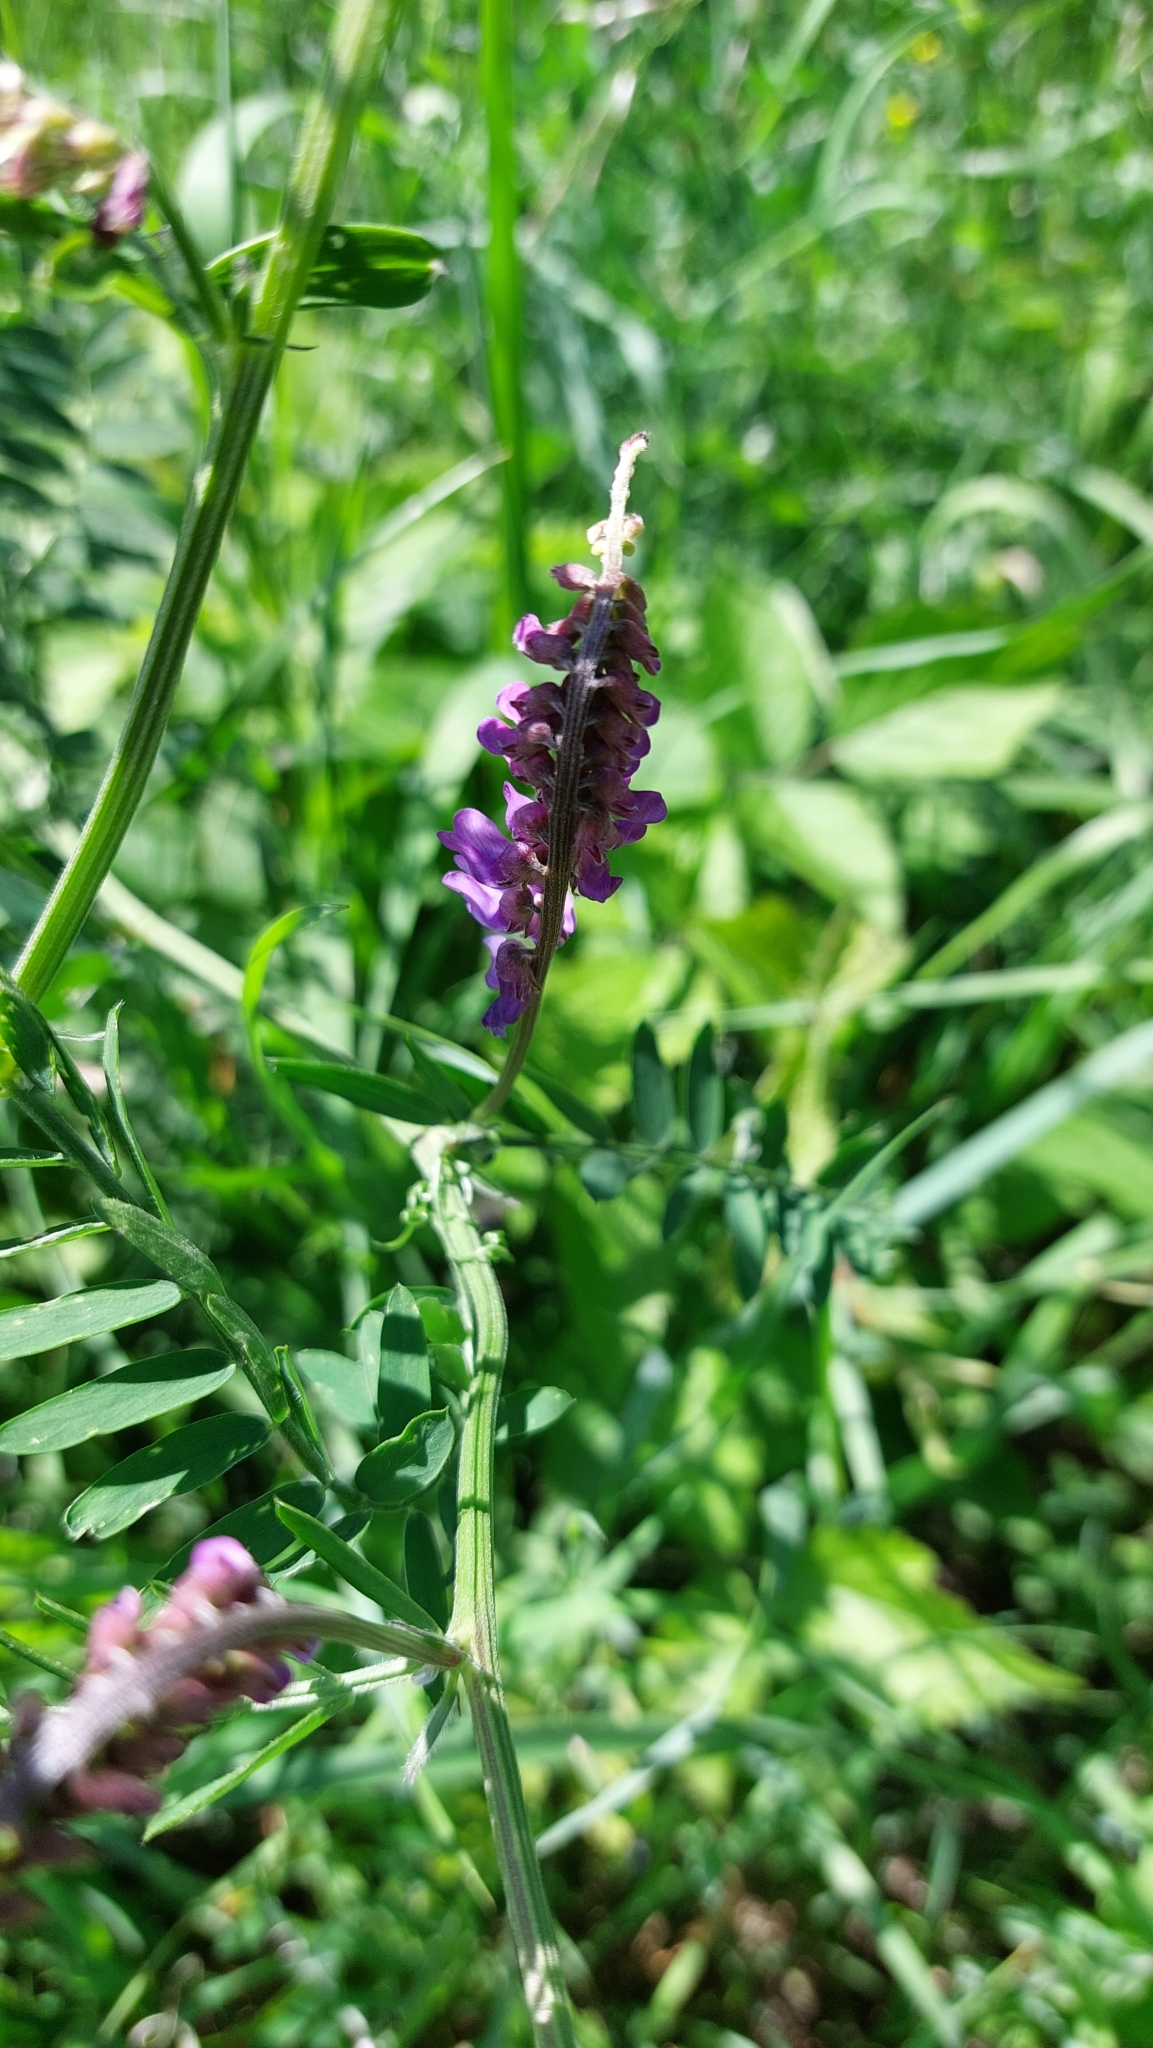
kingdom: Plantae
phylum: Tracheophyta
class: Magnoliopsida
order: Fabales
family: Fabaceae
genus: Vicia
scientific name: Vicia cracca
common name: Bird vetch
